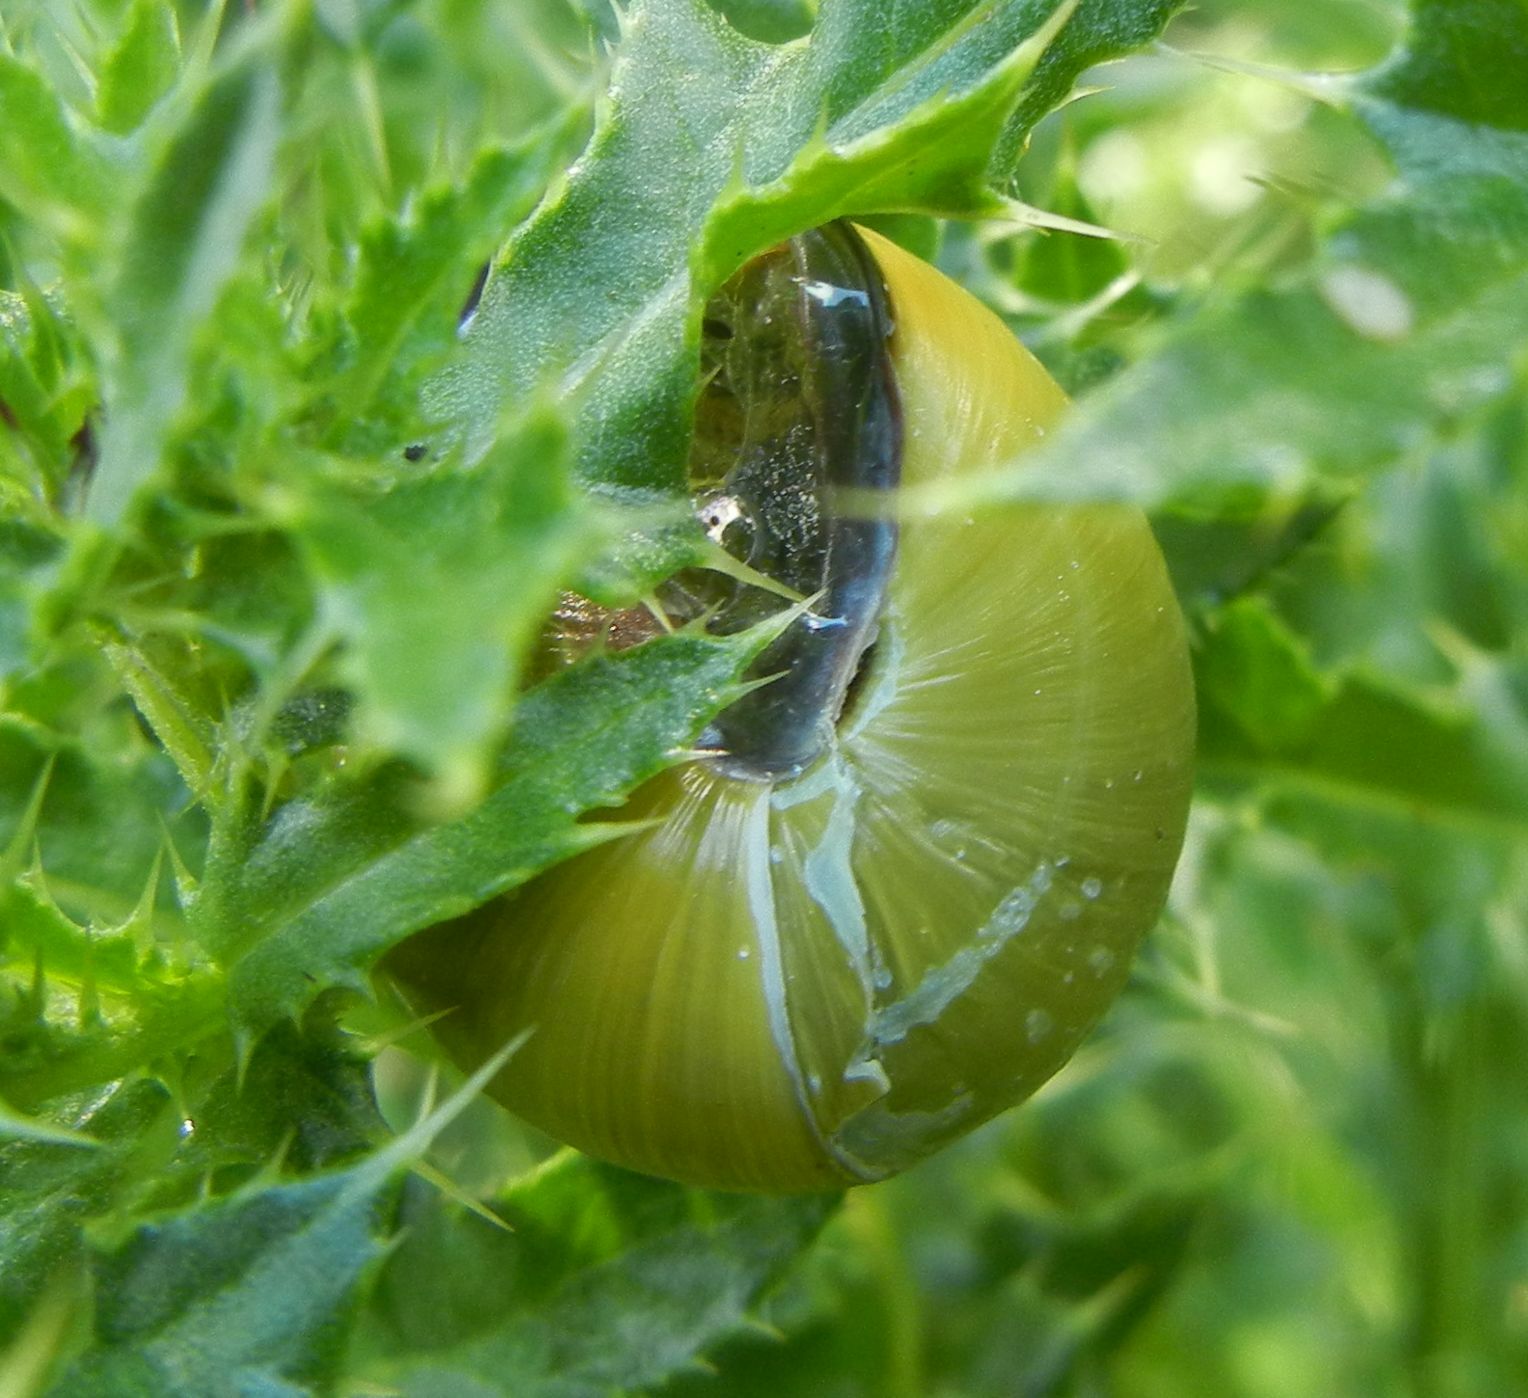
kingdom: Animalia
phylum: Mollusca
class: Gastropoda
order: Stylommatophora
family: Helicidae
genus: Cepaea
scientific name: Cepaea nemoralis
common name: Grovesnail
